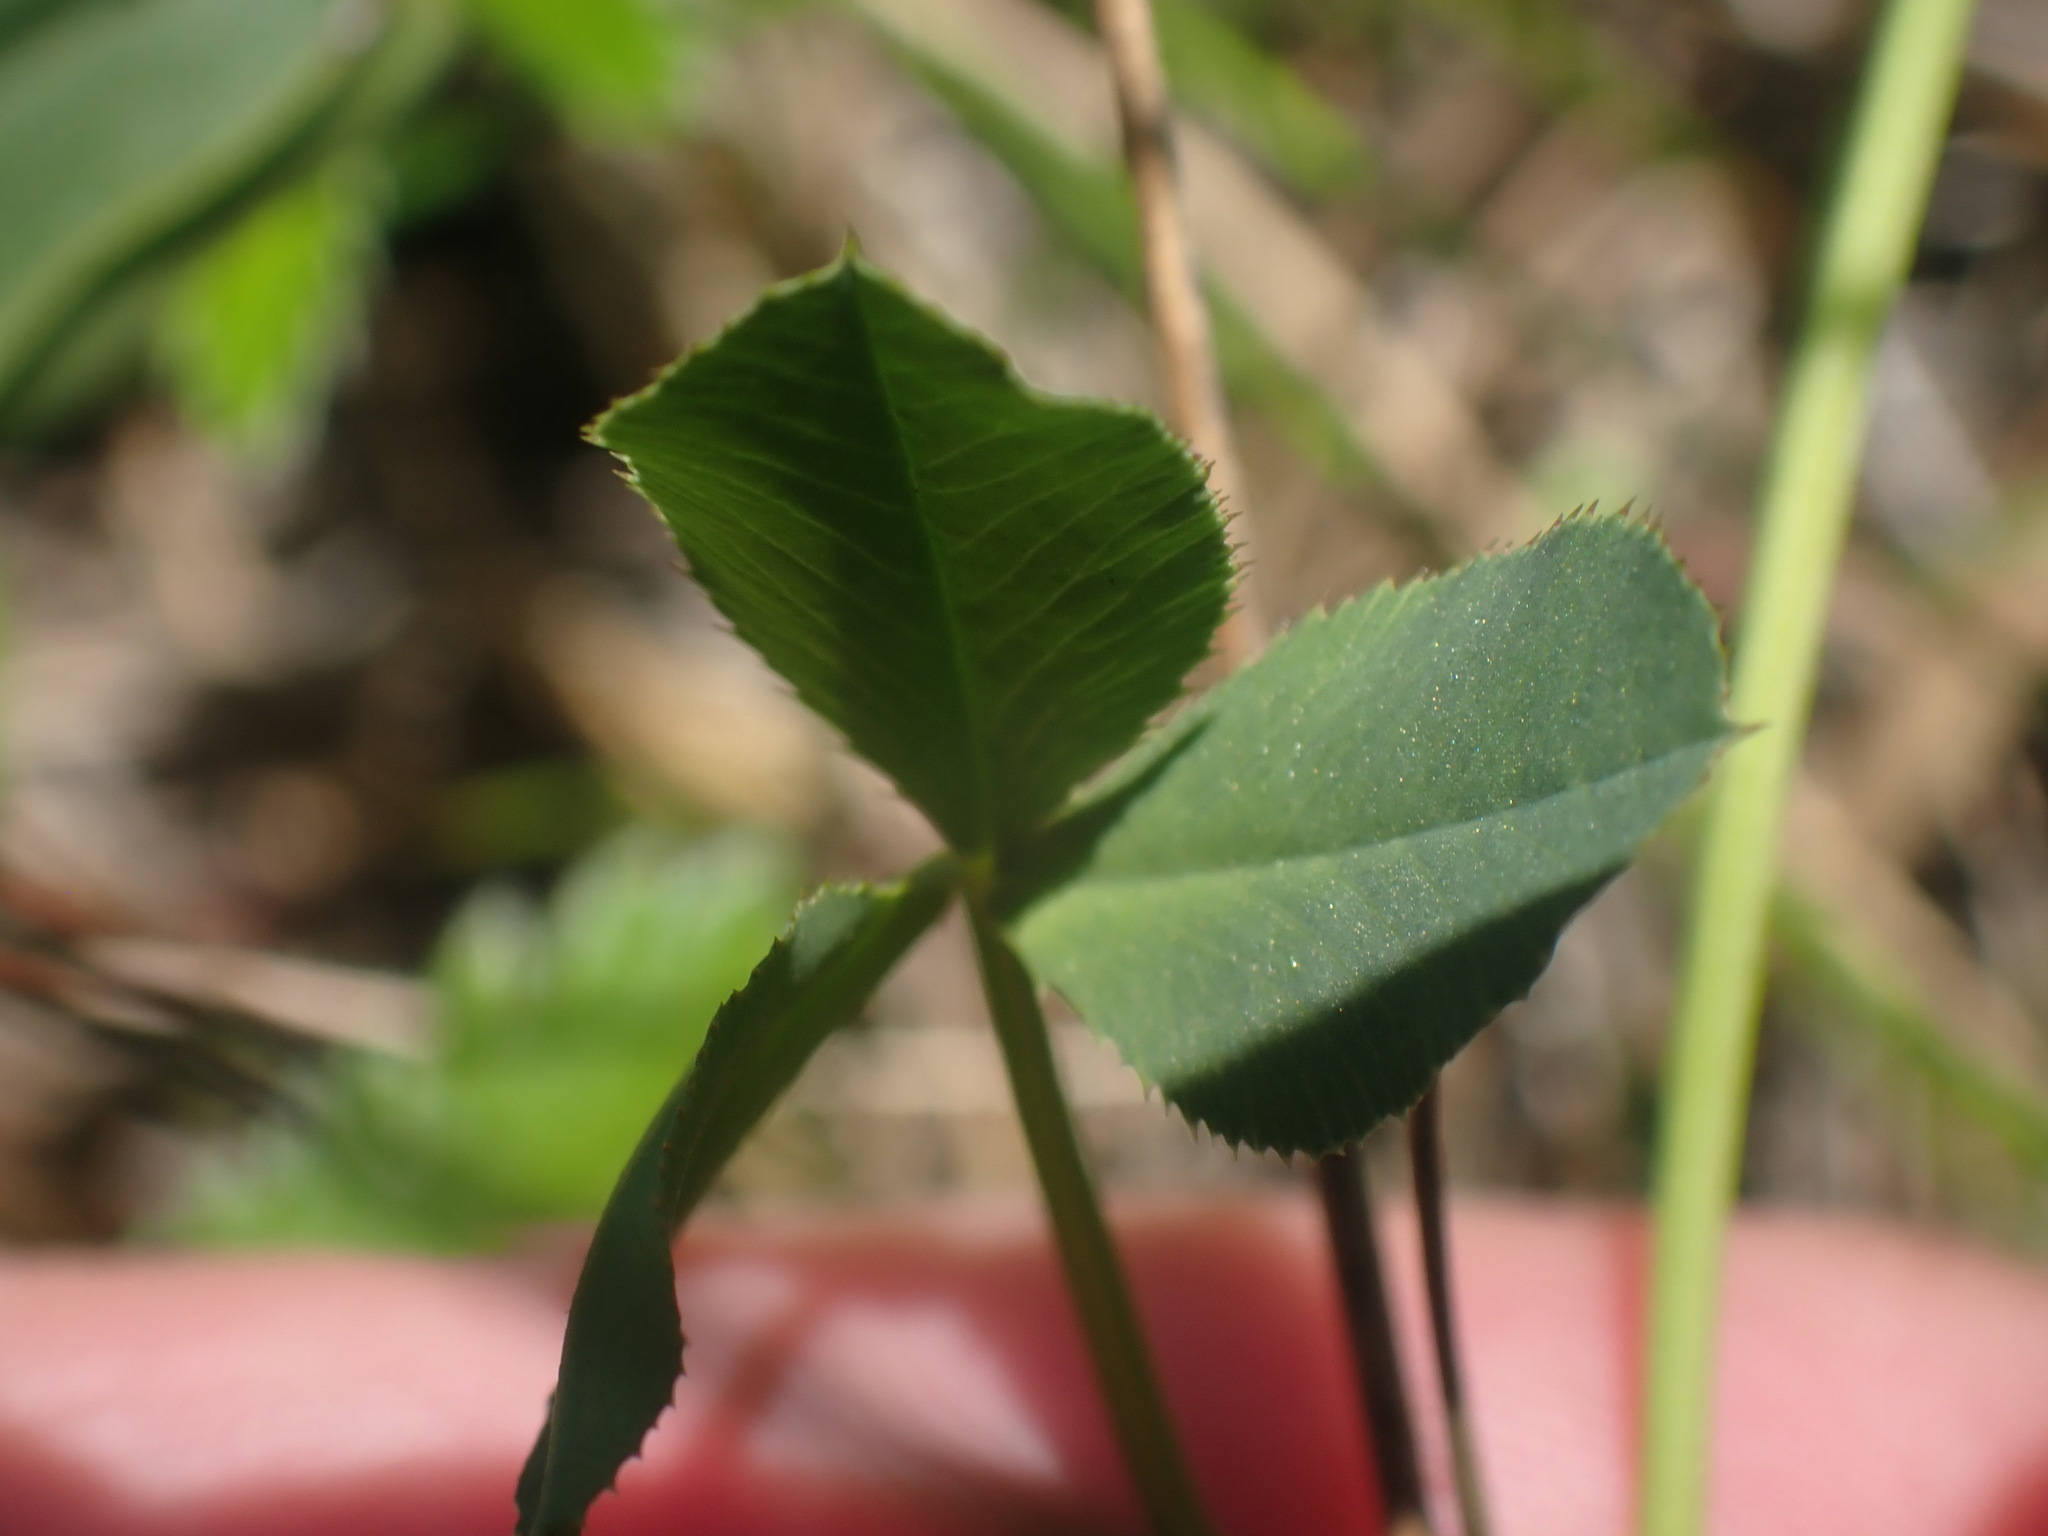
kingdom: Plantae
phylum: Tracheophyta
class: Magnoliopsida
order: Fabales
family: Fabaceae
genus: Trifolium
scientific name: Trifolium wormskioldii
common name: Springbank clover
